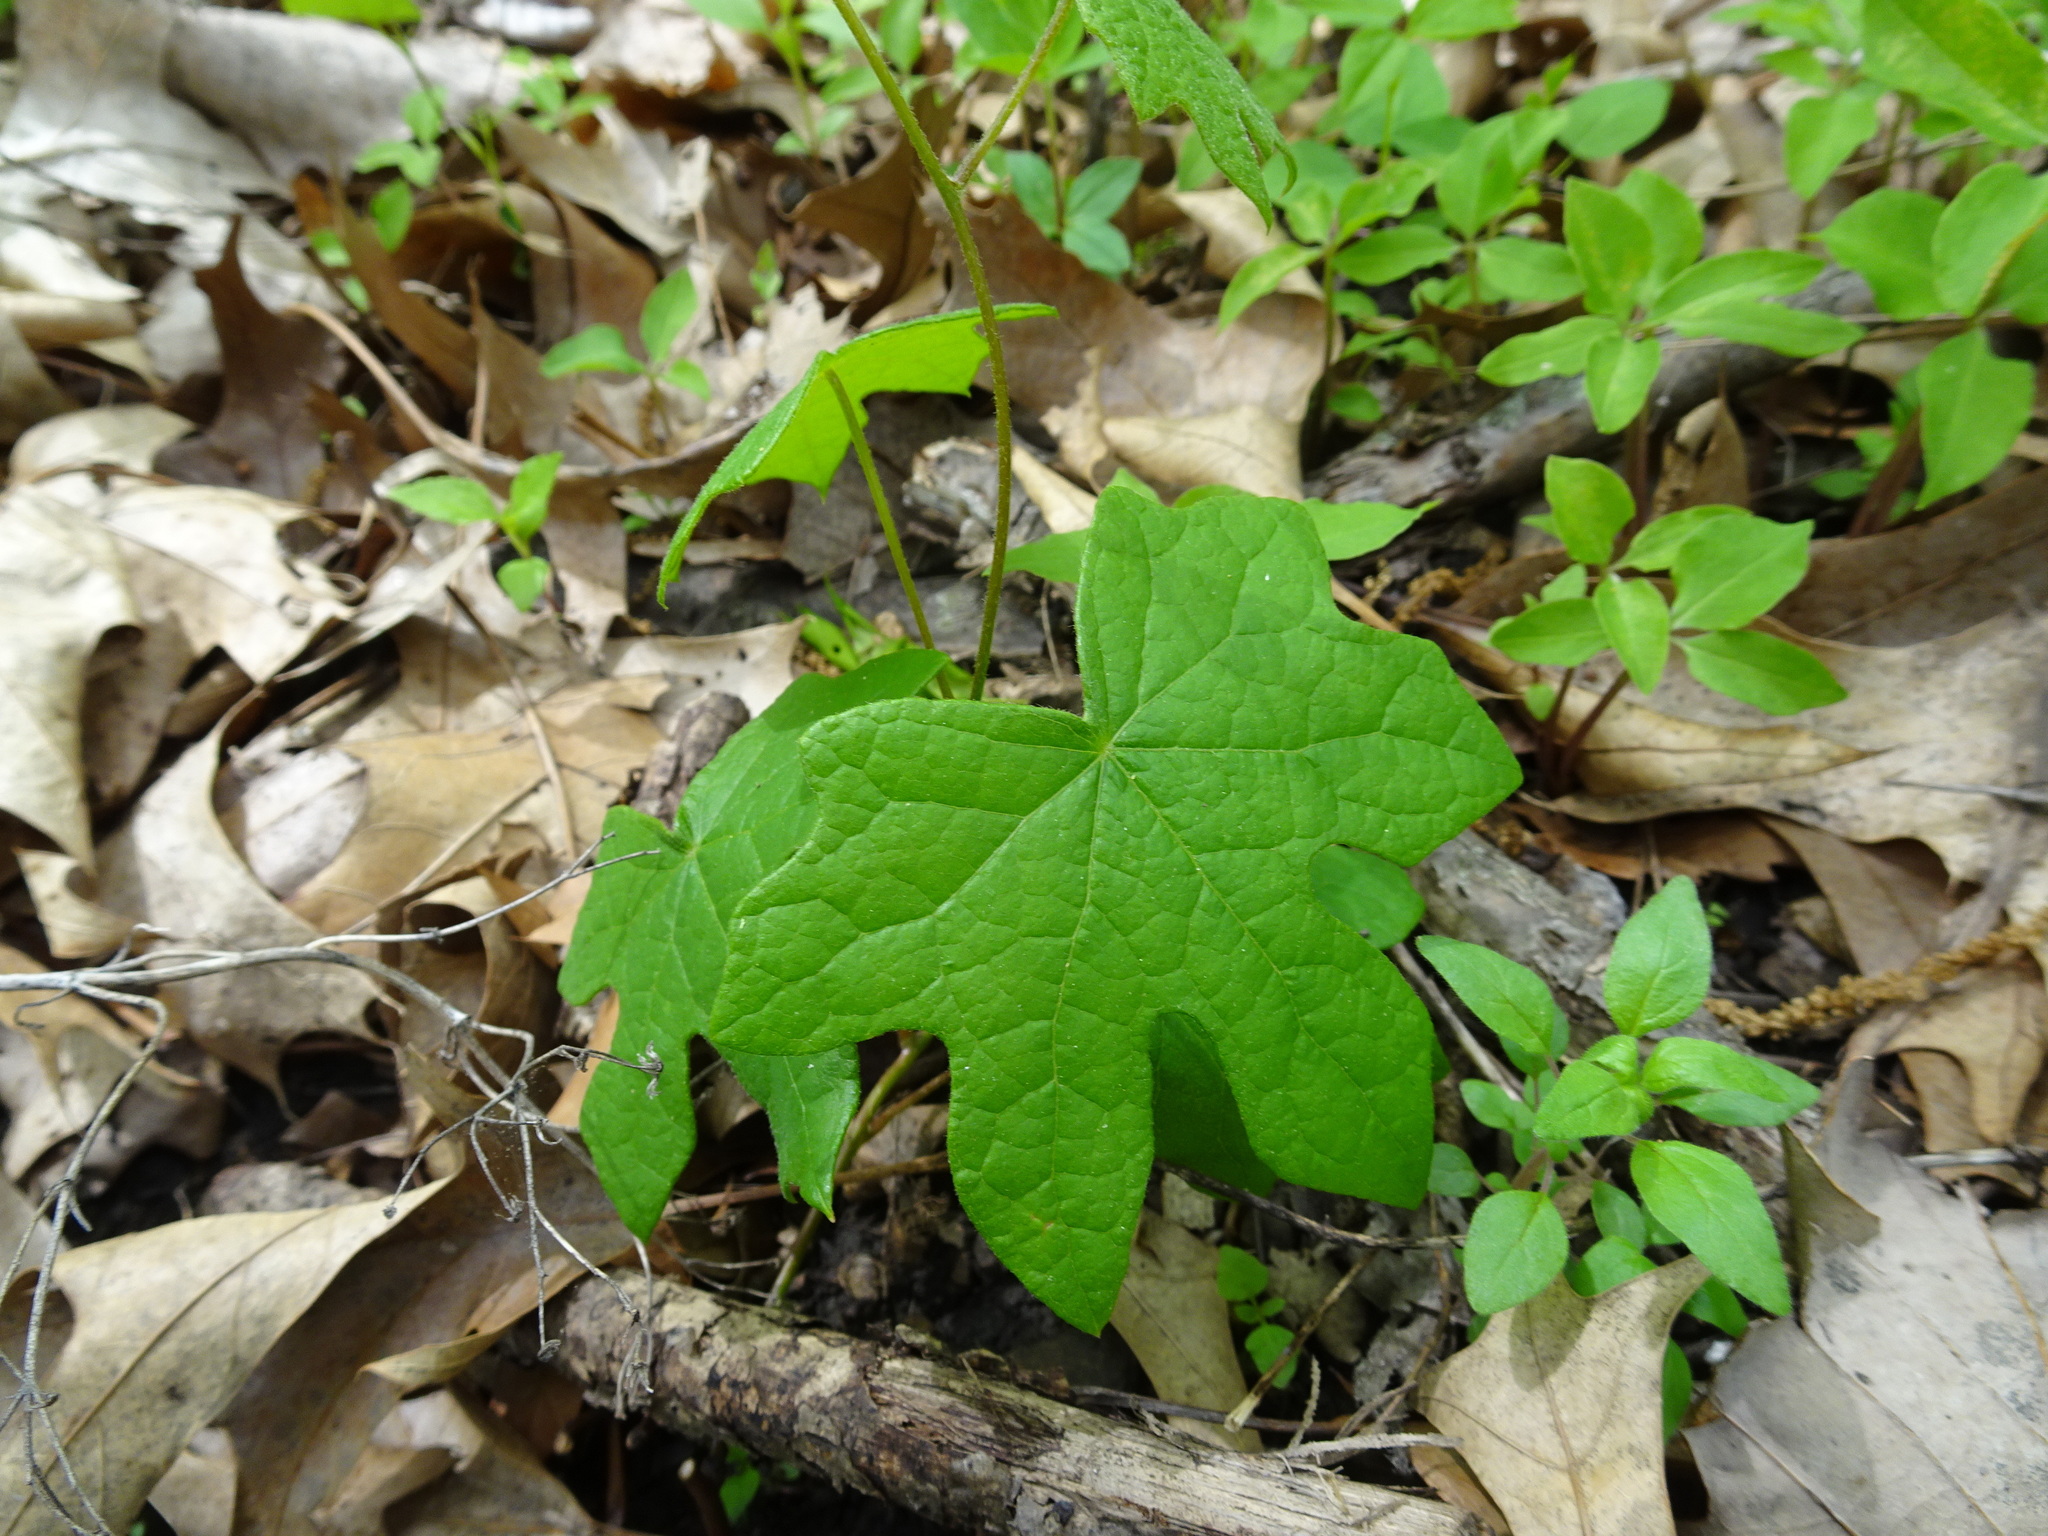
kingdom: Plantae
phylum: Tracheophyta
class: Magnoliopsida
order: Ranunculales
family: Menispermaceae
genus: Menispermum
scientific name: Menispermum canadense
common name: Moonseed
